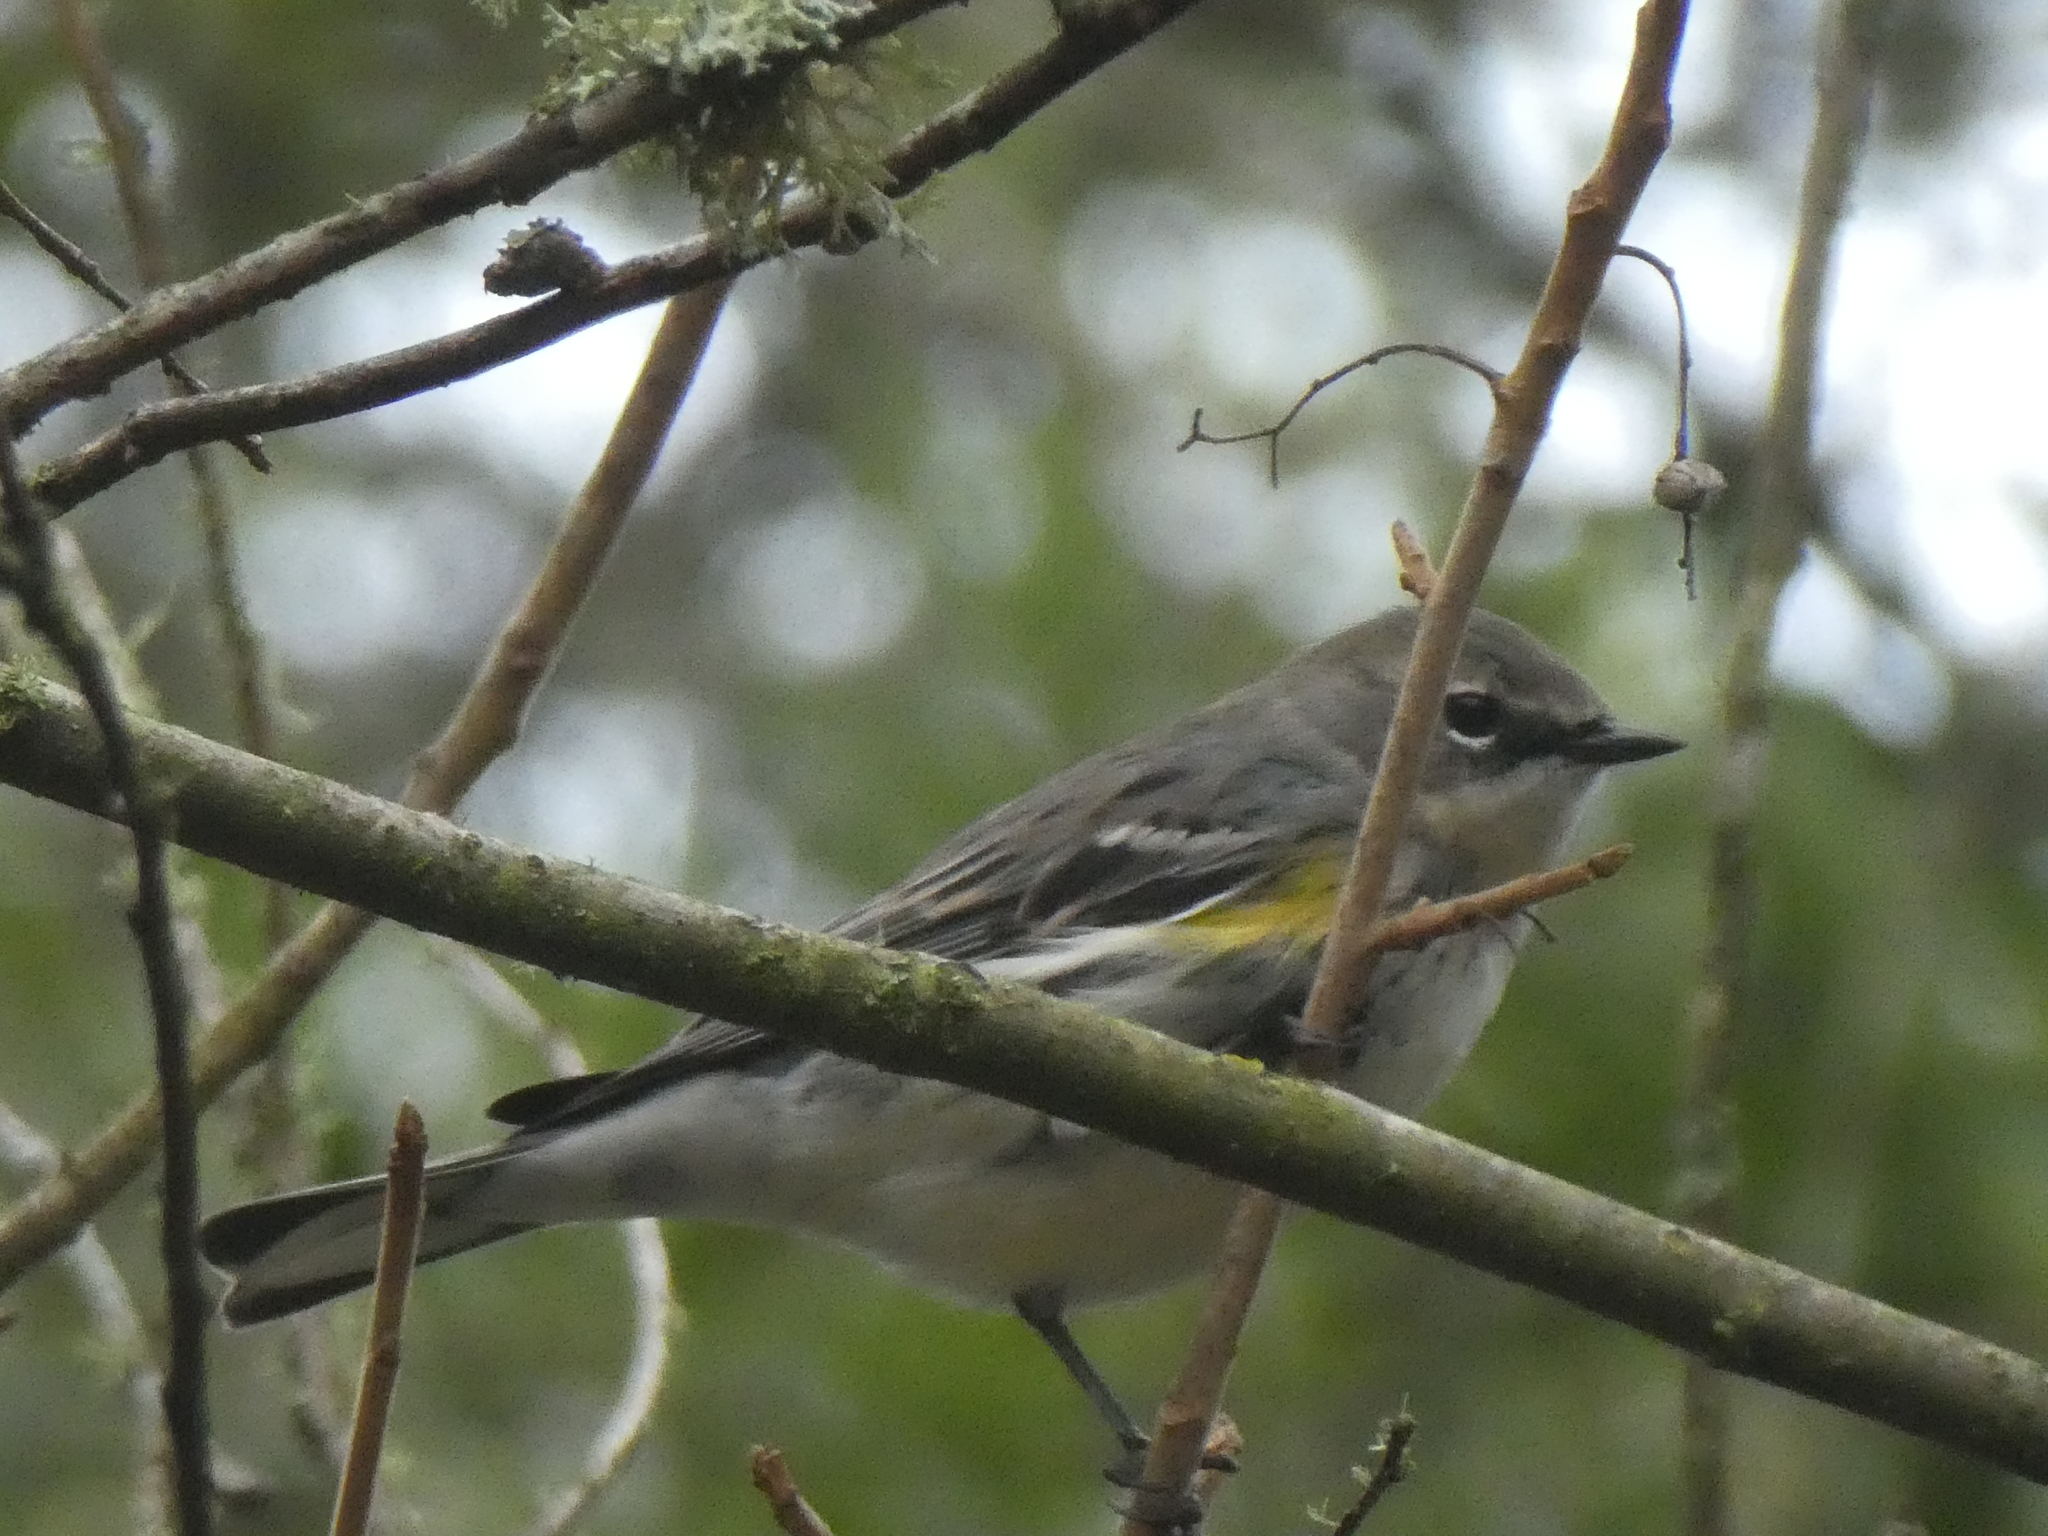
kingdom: Animalia
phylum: Chordata
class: Aves
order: Passeriformes
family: Parulidae
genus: Setophaga
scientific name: Setophaga coronata
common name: Myrtle warbler
